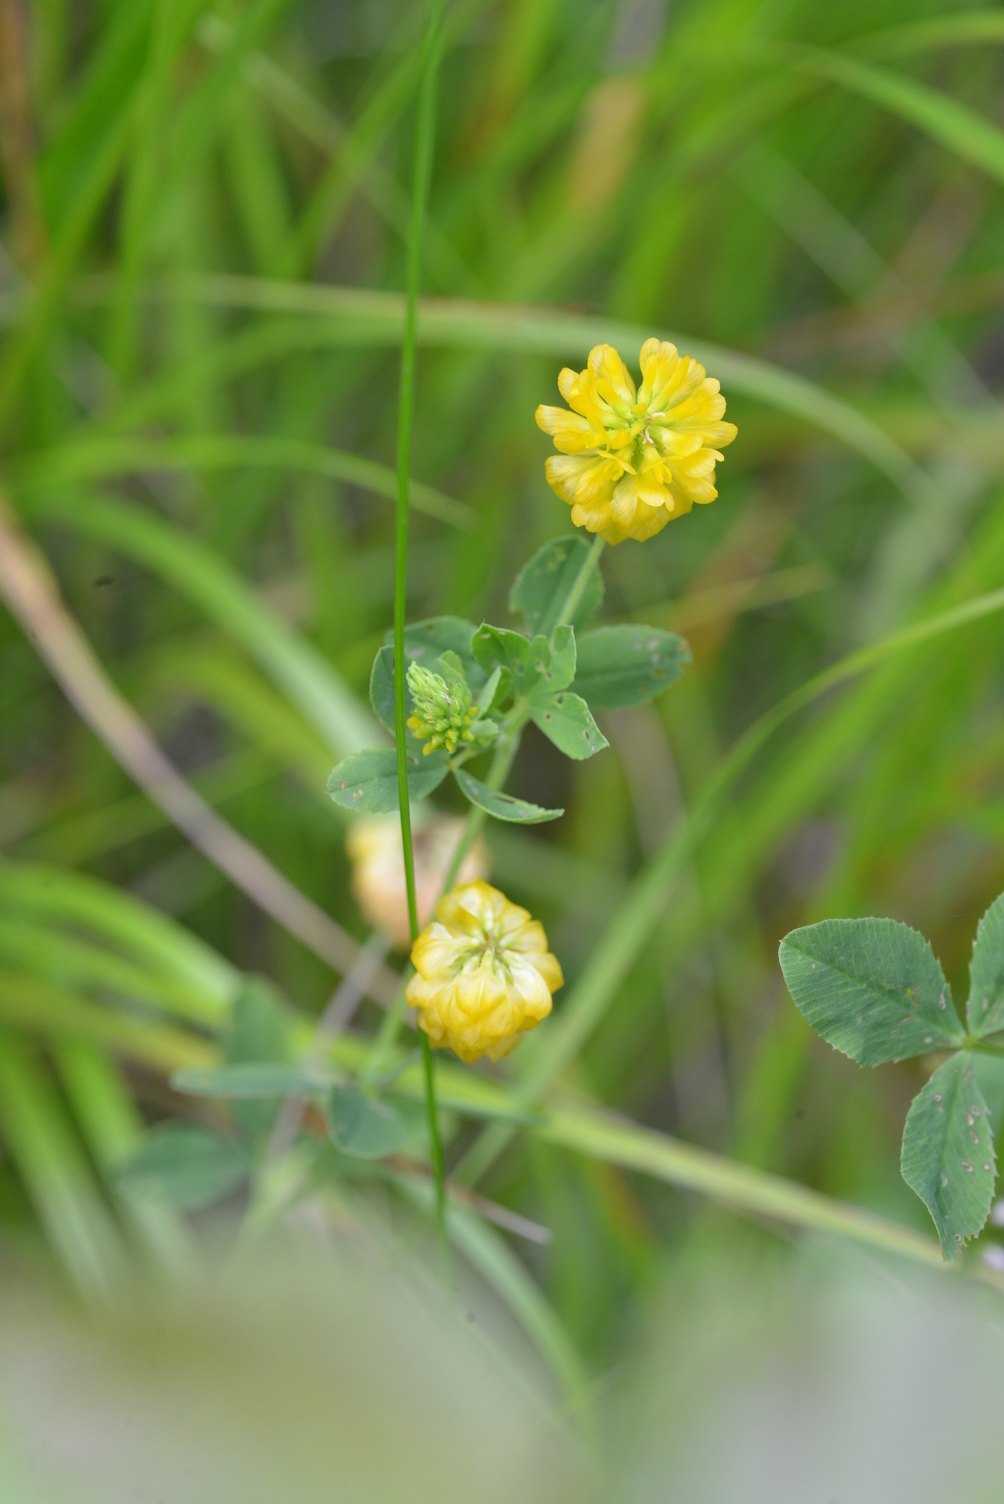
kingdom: Plantae
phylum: Tracheophyta
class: Magnoliopsida
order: Fabales
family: Fabaceae
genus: Trifolium
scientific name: Trifolium aureum
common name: Golden clover
